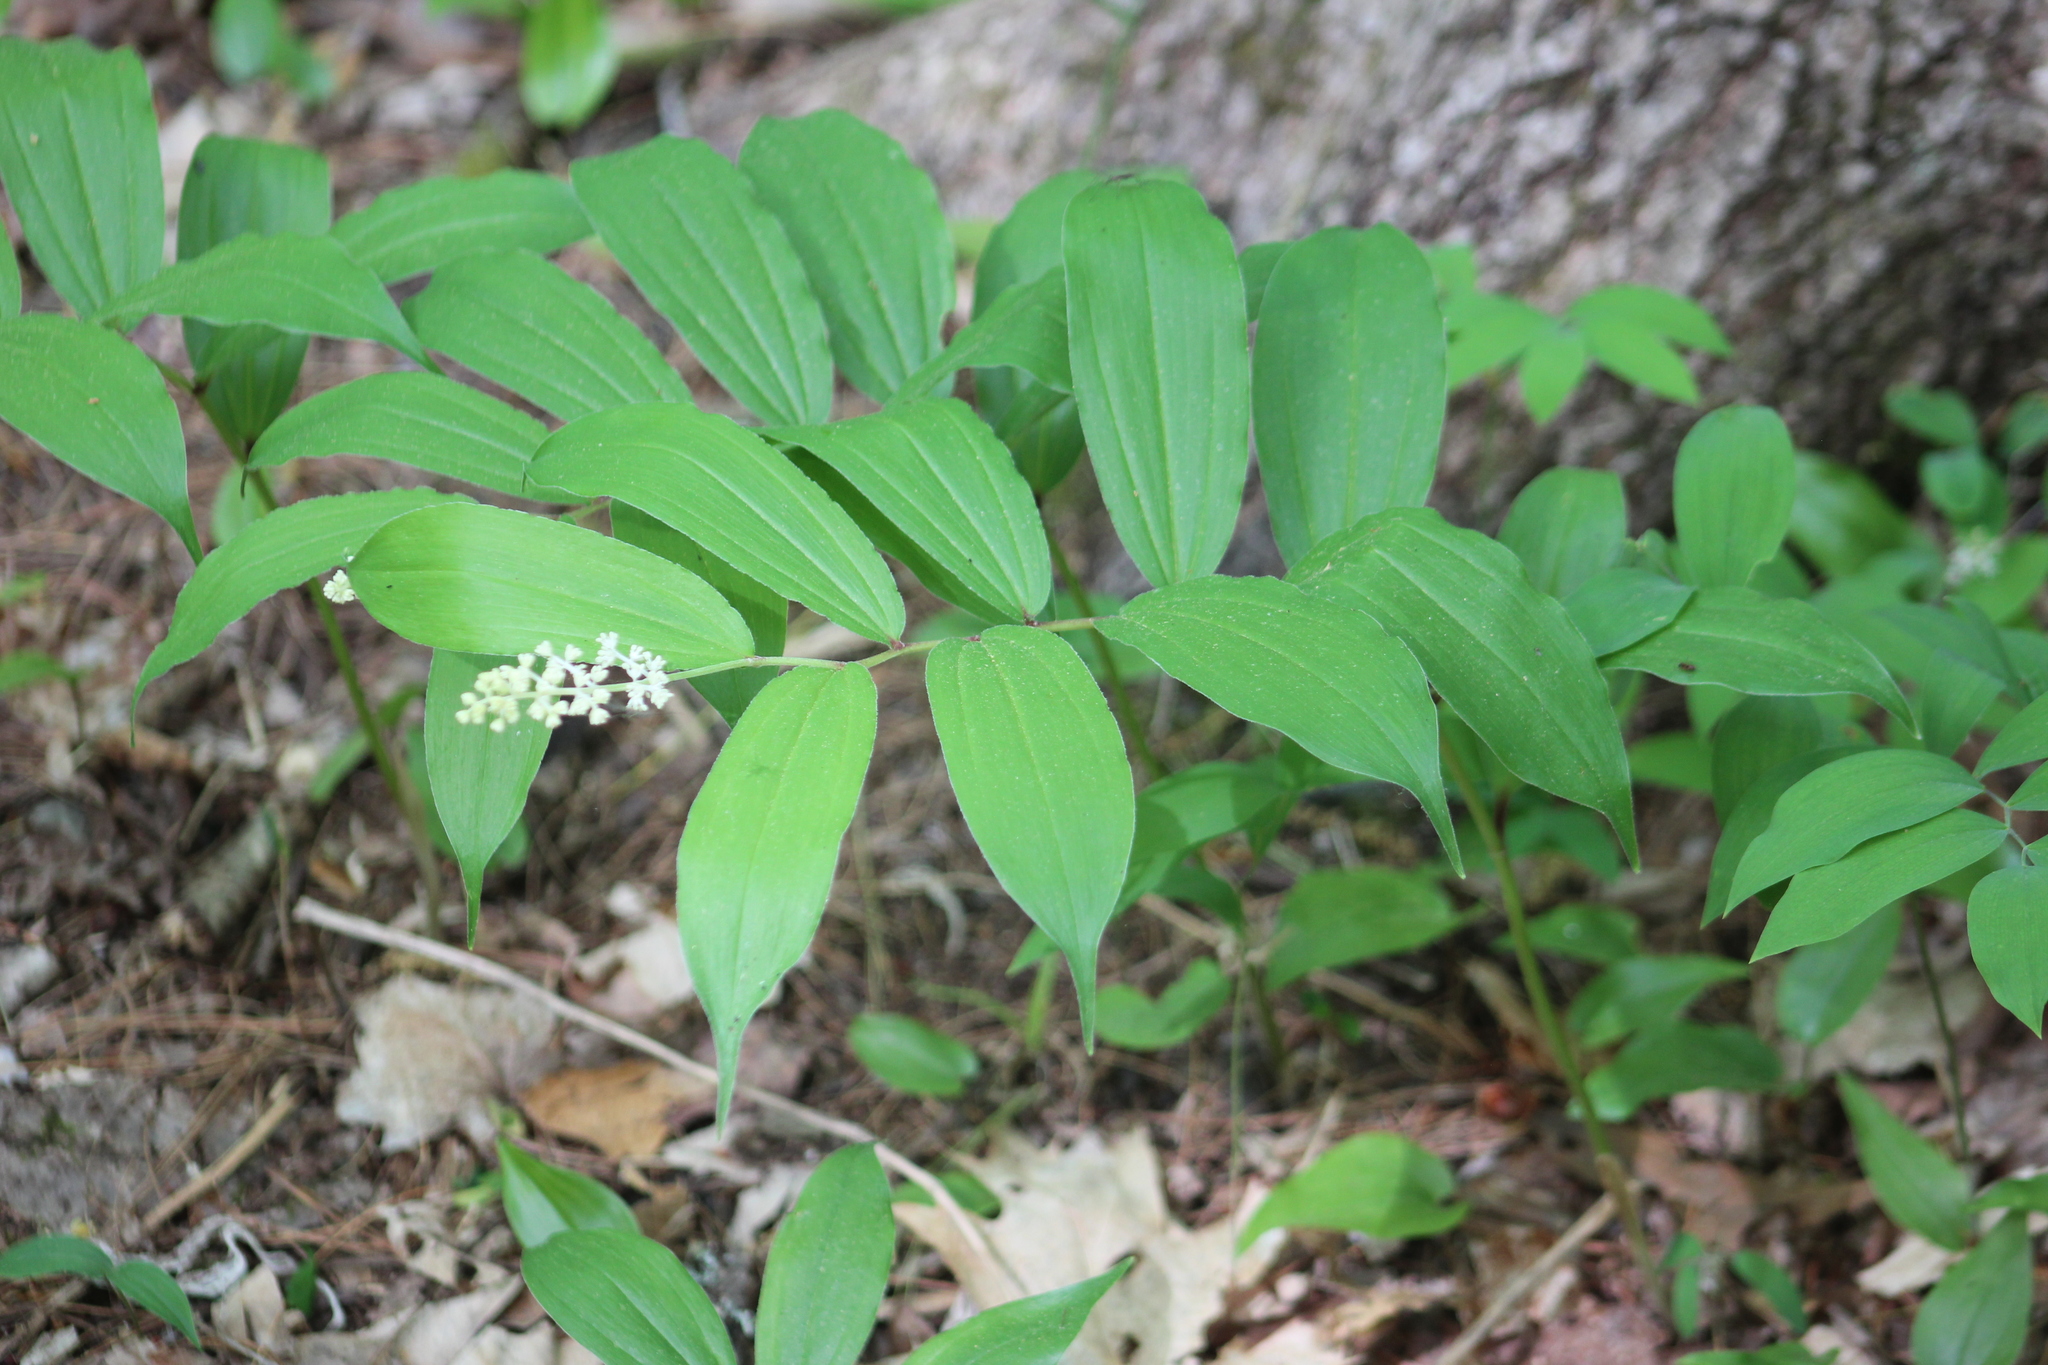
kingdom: Plantae
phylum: Tracheophyta
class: Liliopsida
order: Asparagales
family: Asparagaceae
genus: Maianthemum
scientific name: Maianthemum racemosum
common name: False spikenard
